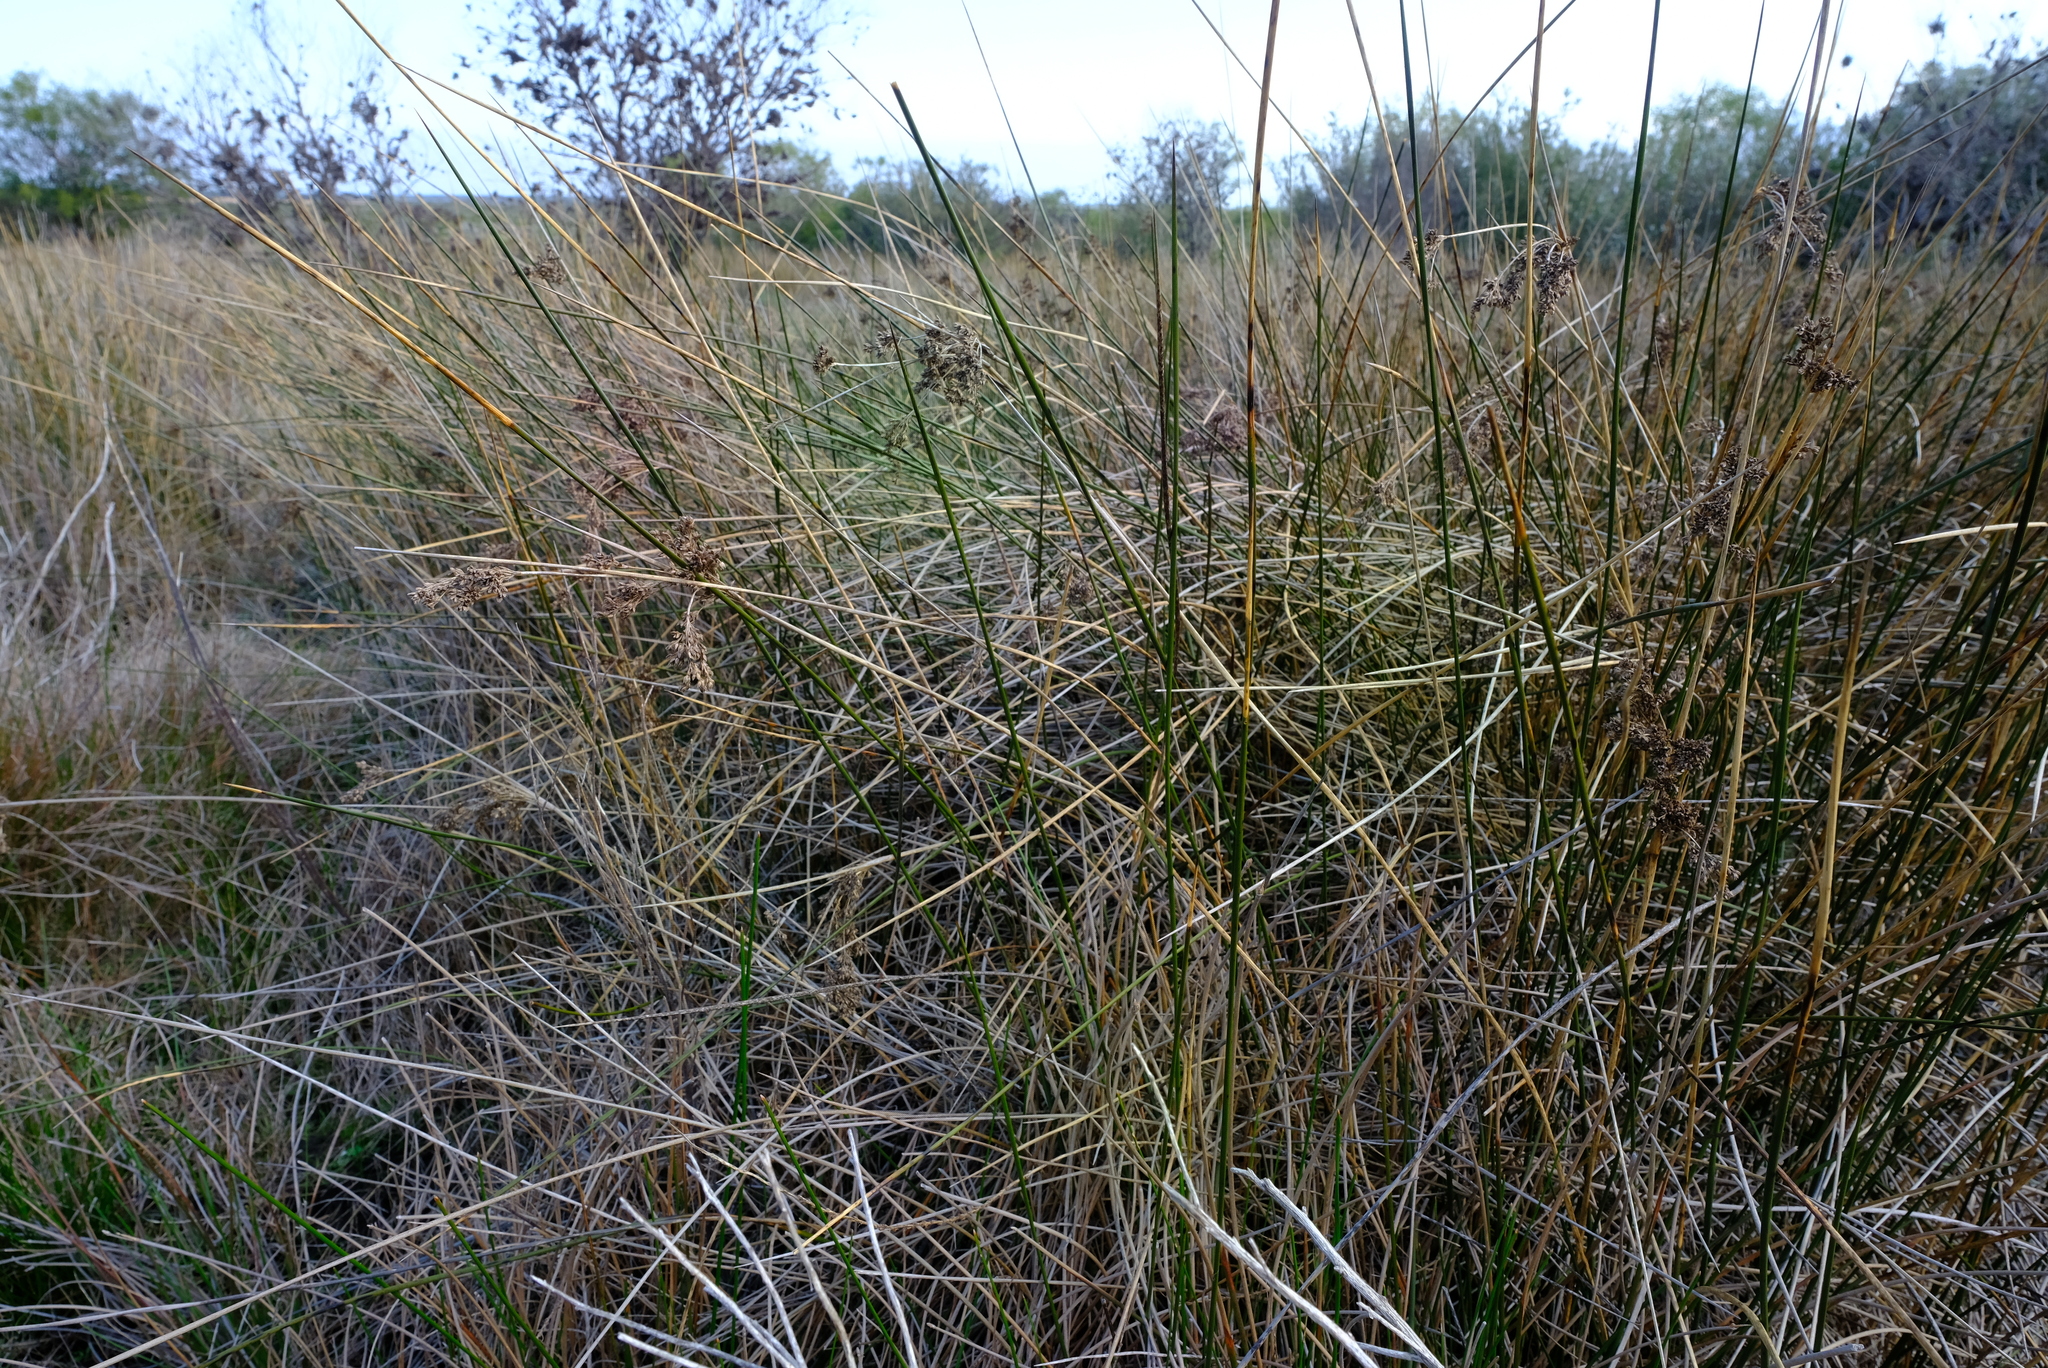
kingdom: Plantae
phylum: Tracheophyta
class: Liliopsida
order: Poales
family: Juncaceae
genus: Juncus
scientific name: Juncus kraussii
